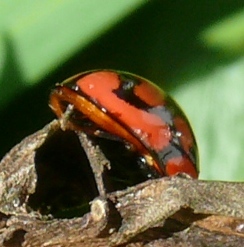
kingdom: Animalia
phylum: Arthropoda
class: Insecta
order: Coleoptera
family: Coccinellidae
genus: Cheilomenes
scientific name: Cheilomenes lunata
